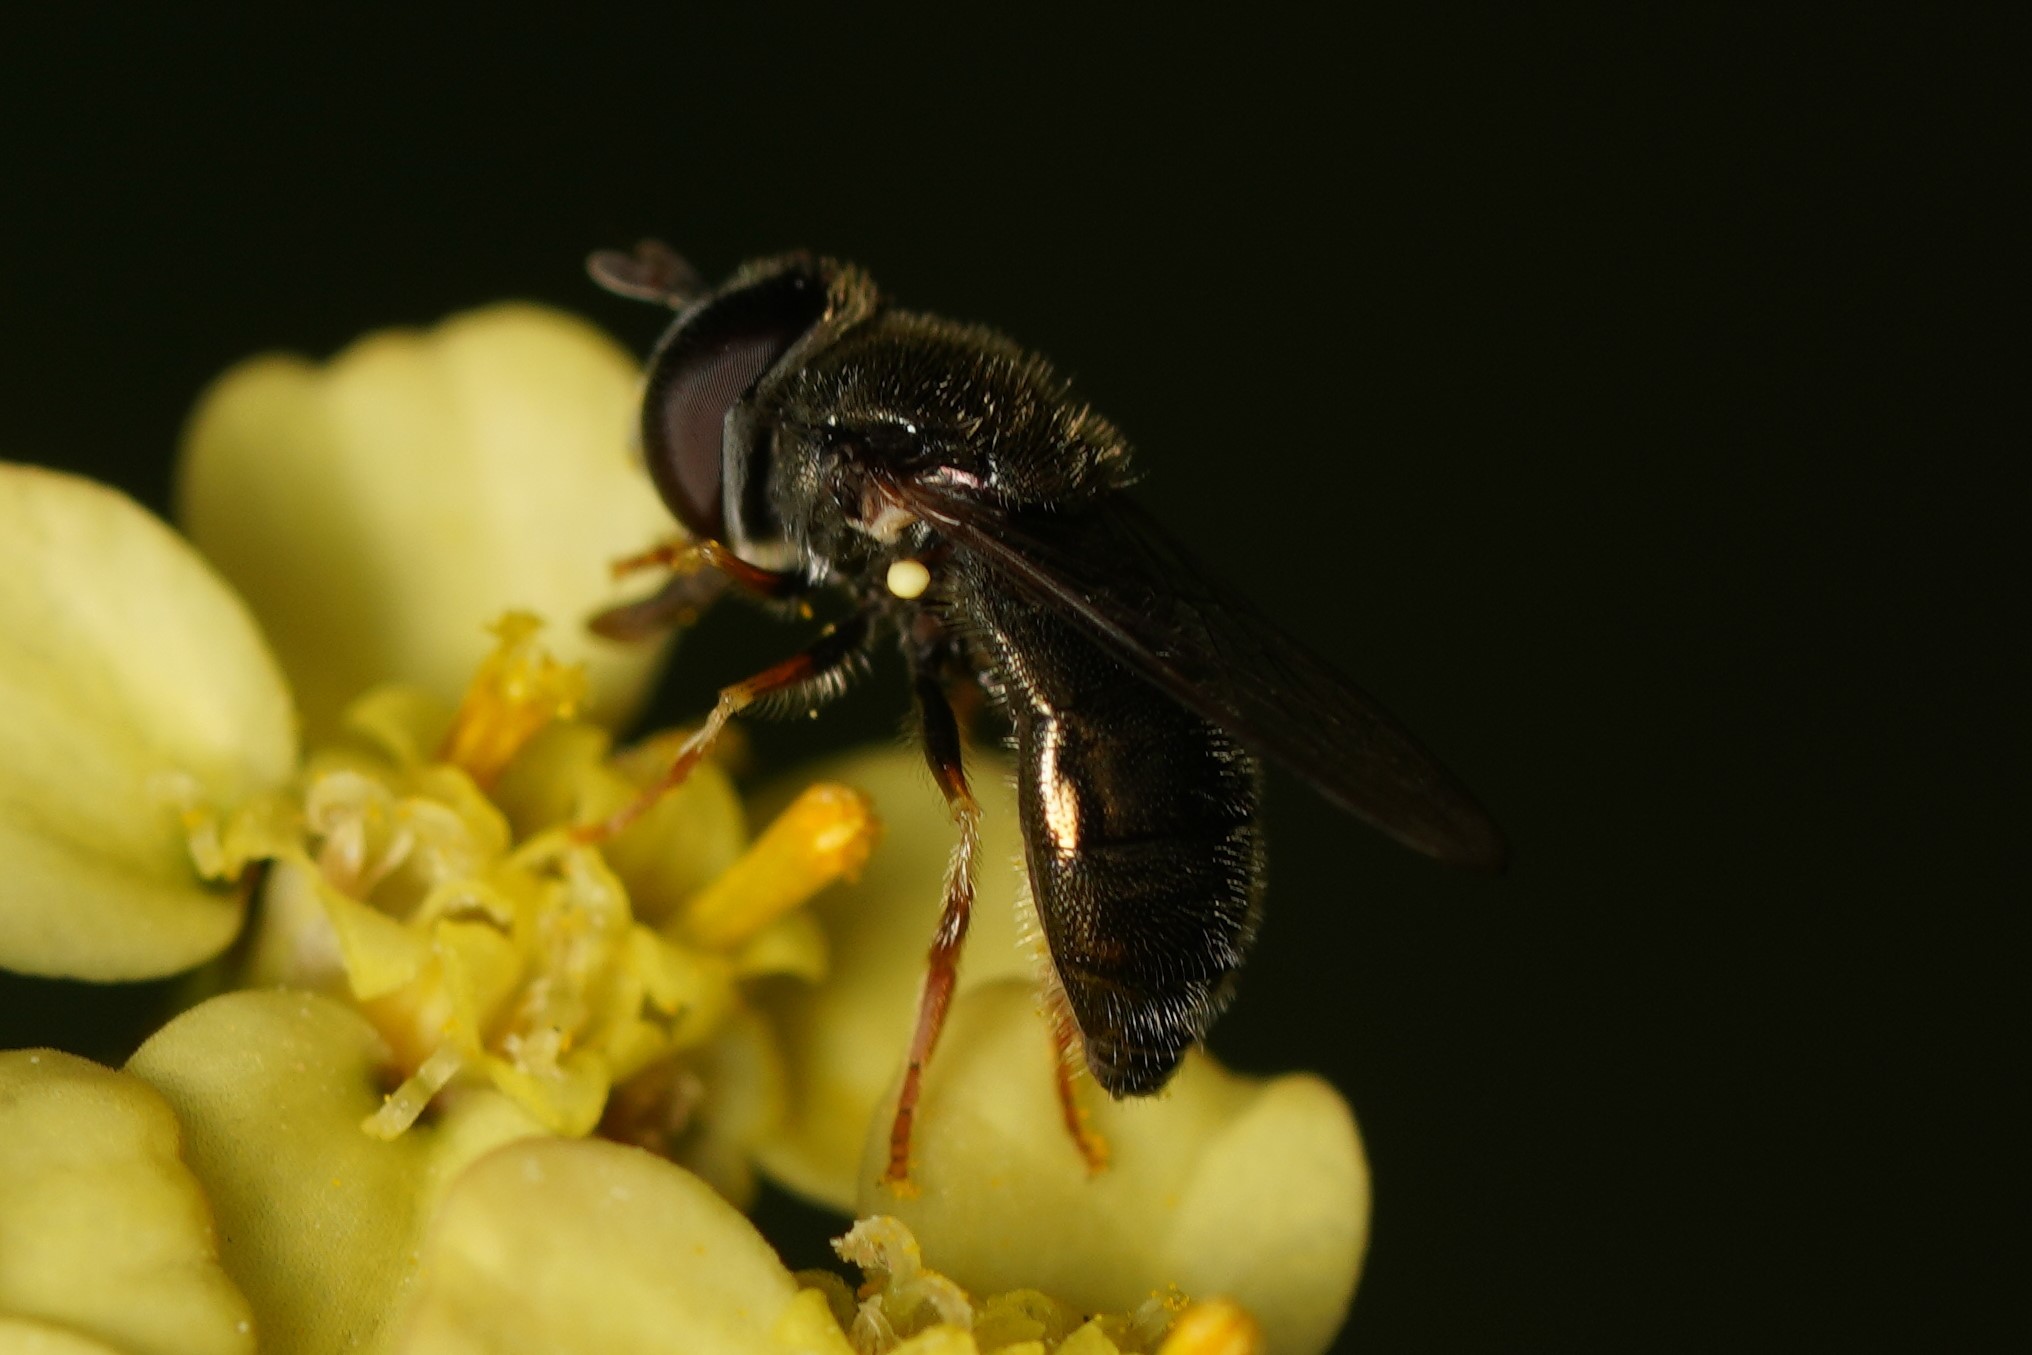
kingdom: Animalia
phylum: Arthropoda
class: Insecta
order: Diptera
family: Syrphidae
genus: Paragus
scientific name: Paragus haemorrhous
